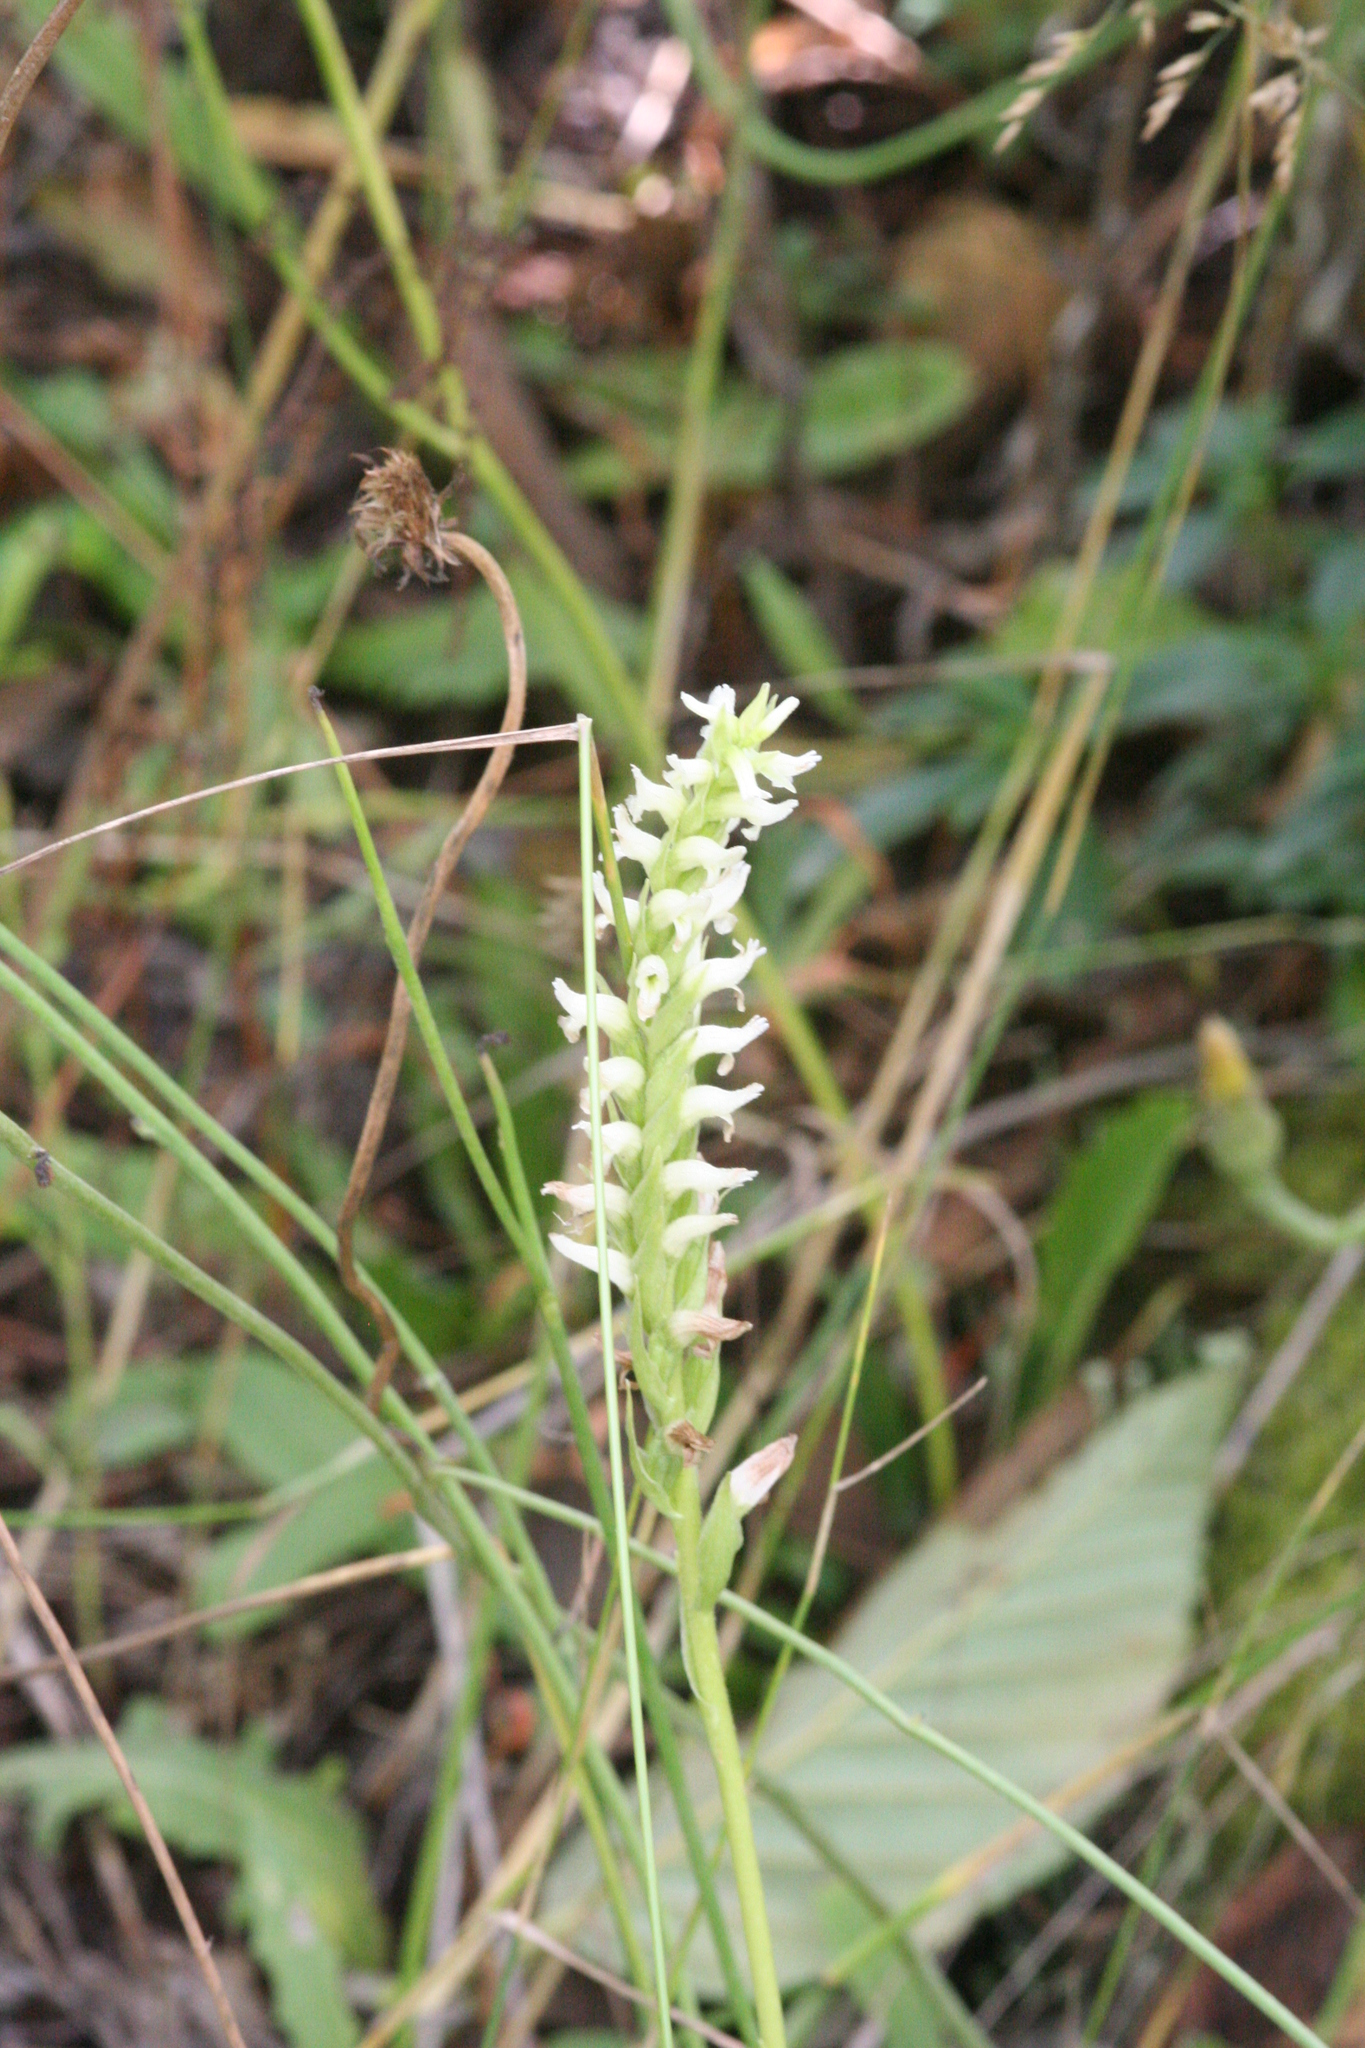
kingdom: Plantae
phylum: Tracheophyta
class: Liliopsida
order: Asparagales
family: Orchidaceae
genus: Spiranthes
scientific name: Spiranthes romanzoffiana
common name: Irish lady's-tresses
